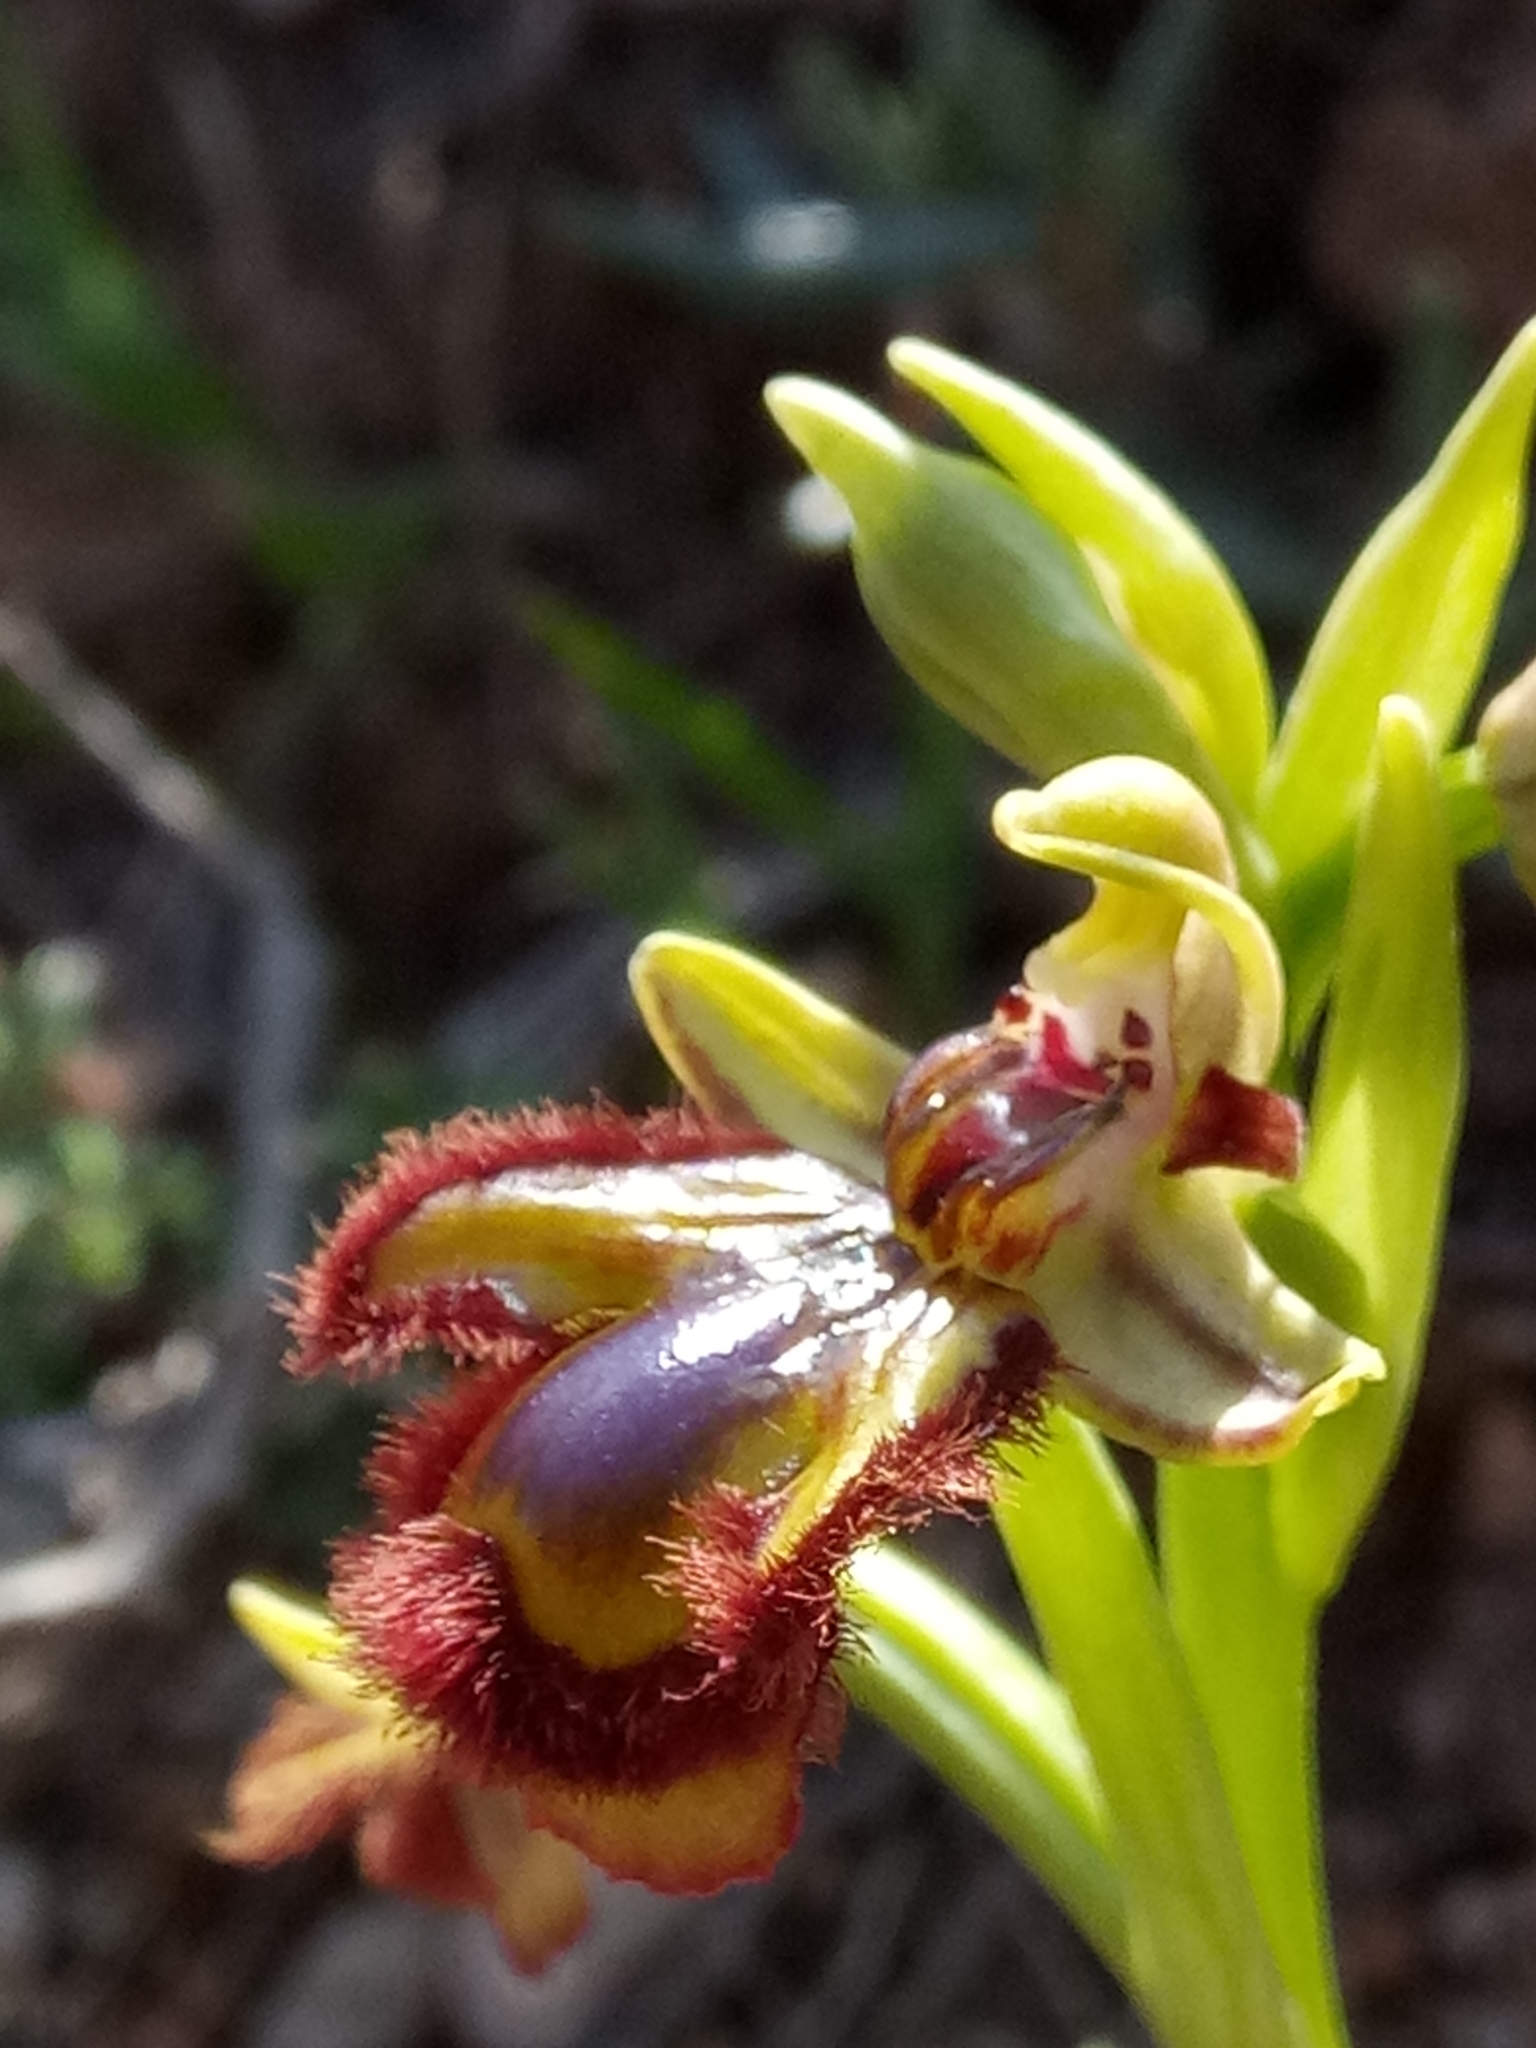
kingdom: Plantae
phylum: Tracheophyta
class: Liliopsida
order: Asparagales
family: Orchidaceae
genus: Ophrys
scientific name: Ophrys speculum
